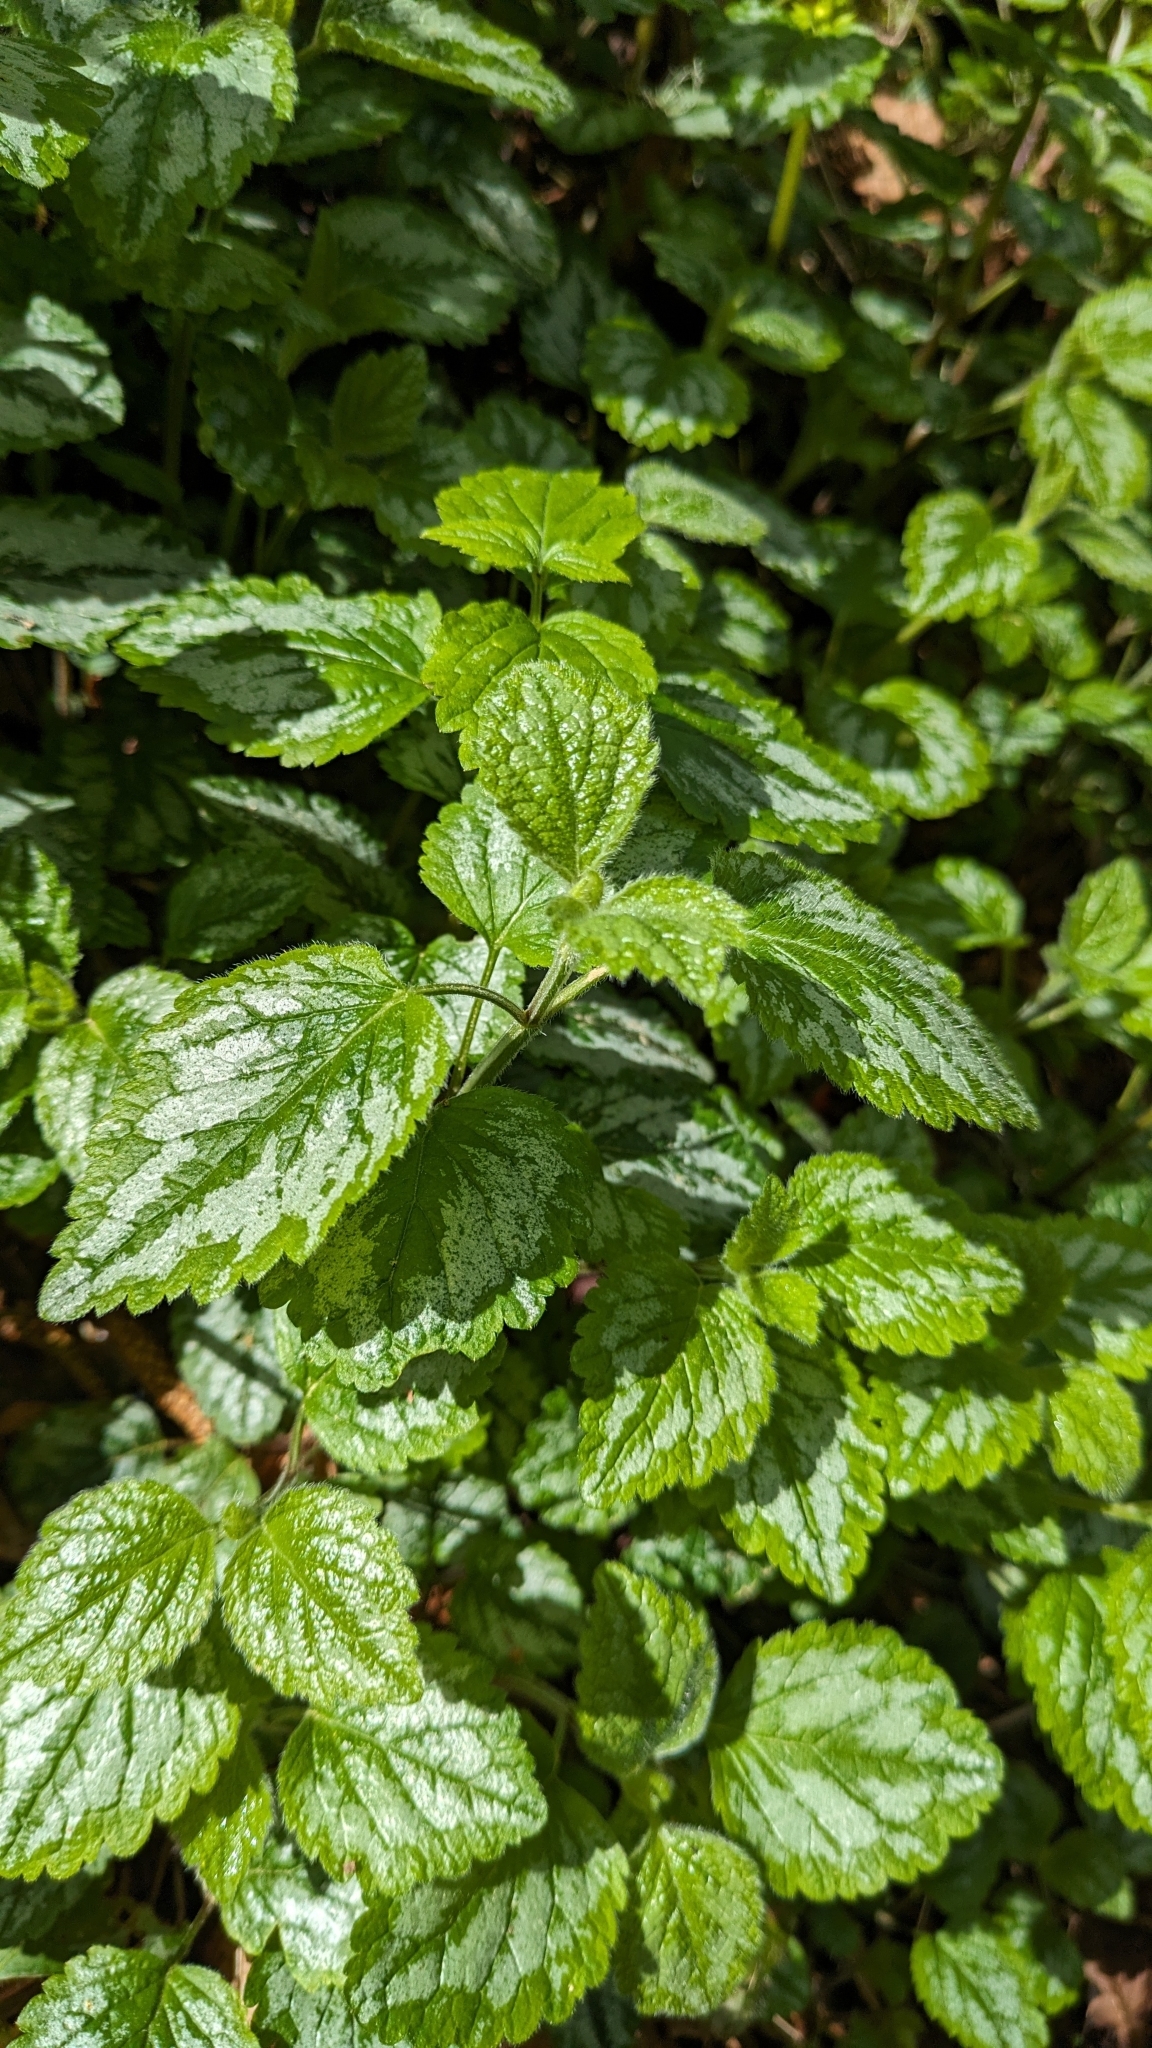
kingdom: Plantae
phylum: Tracheophyta
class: Magnoliopsida
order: Lamiales
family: Lamiaceae
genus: Lamium
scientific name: Lamium galeobdolon
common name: Yellow archangel
